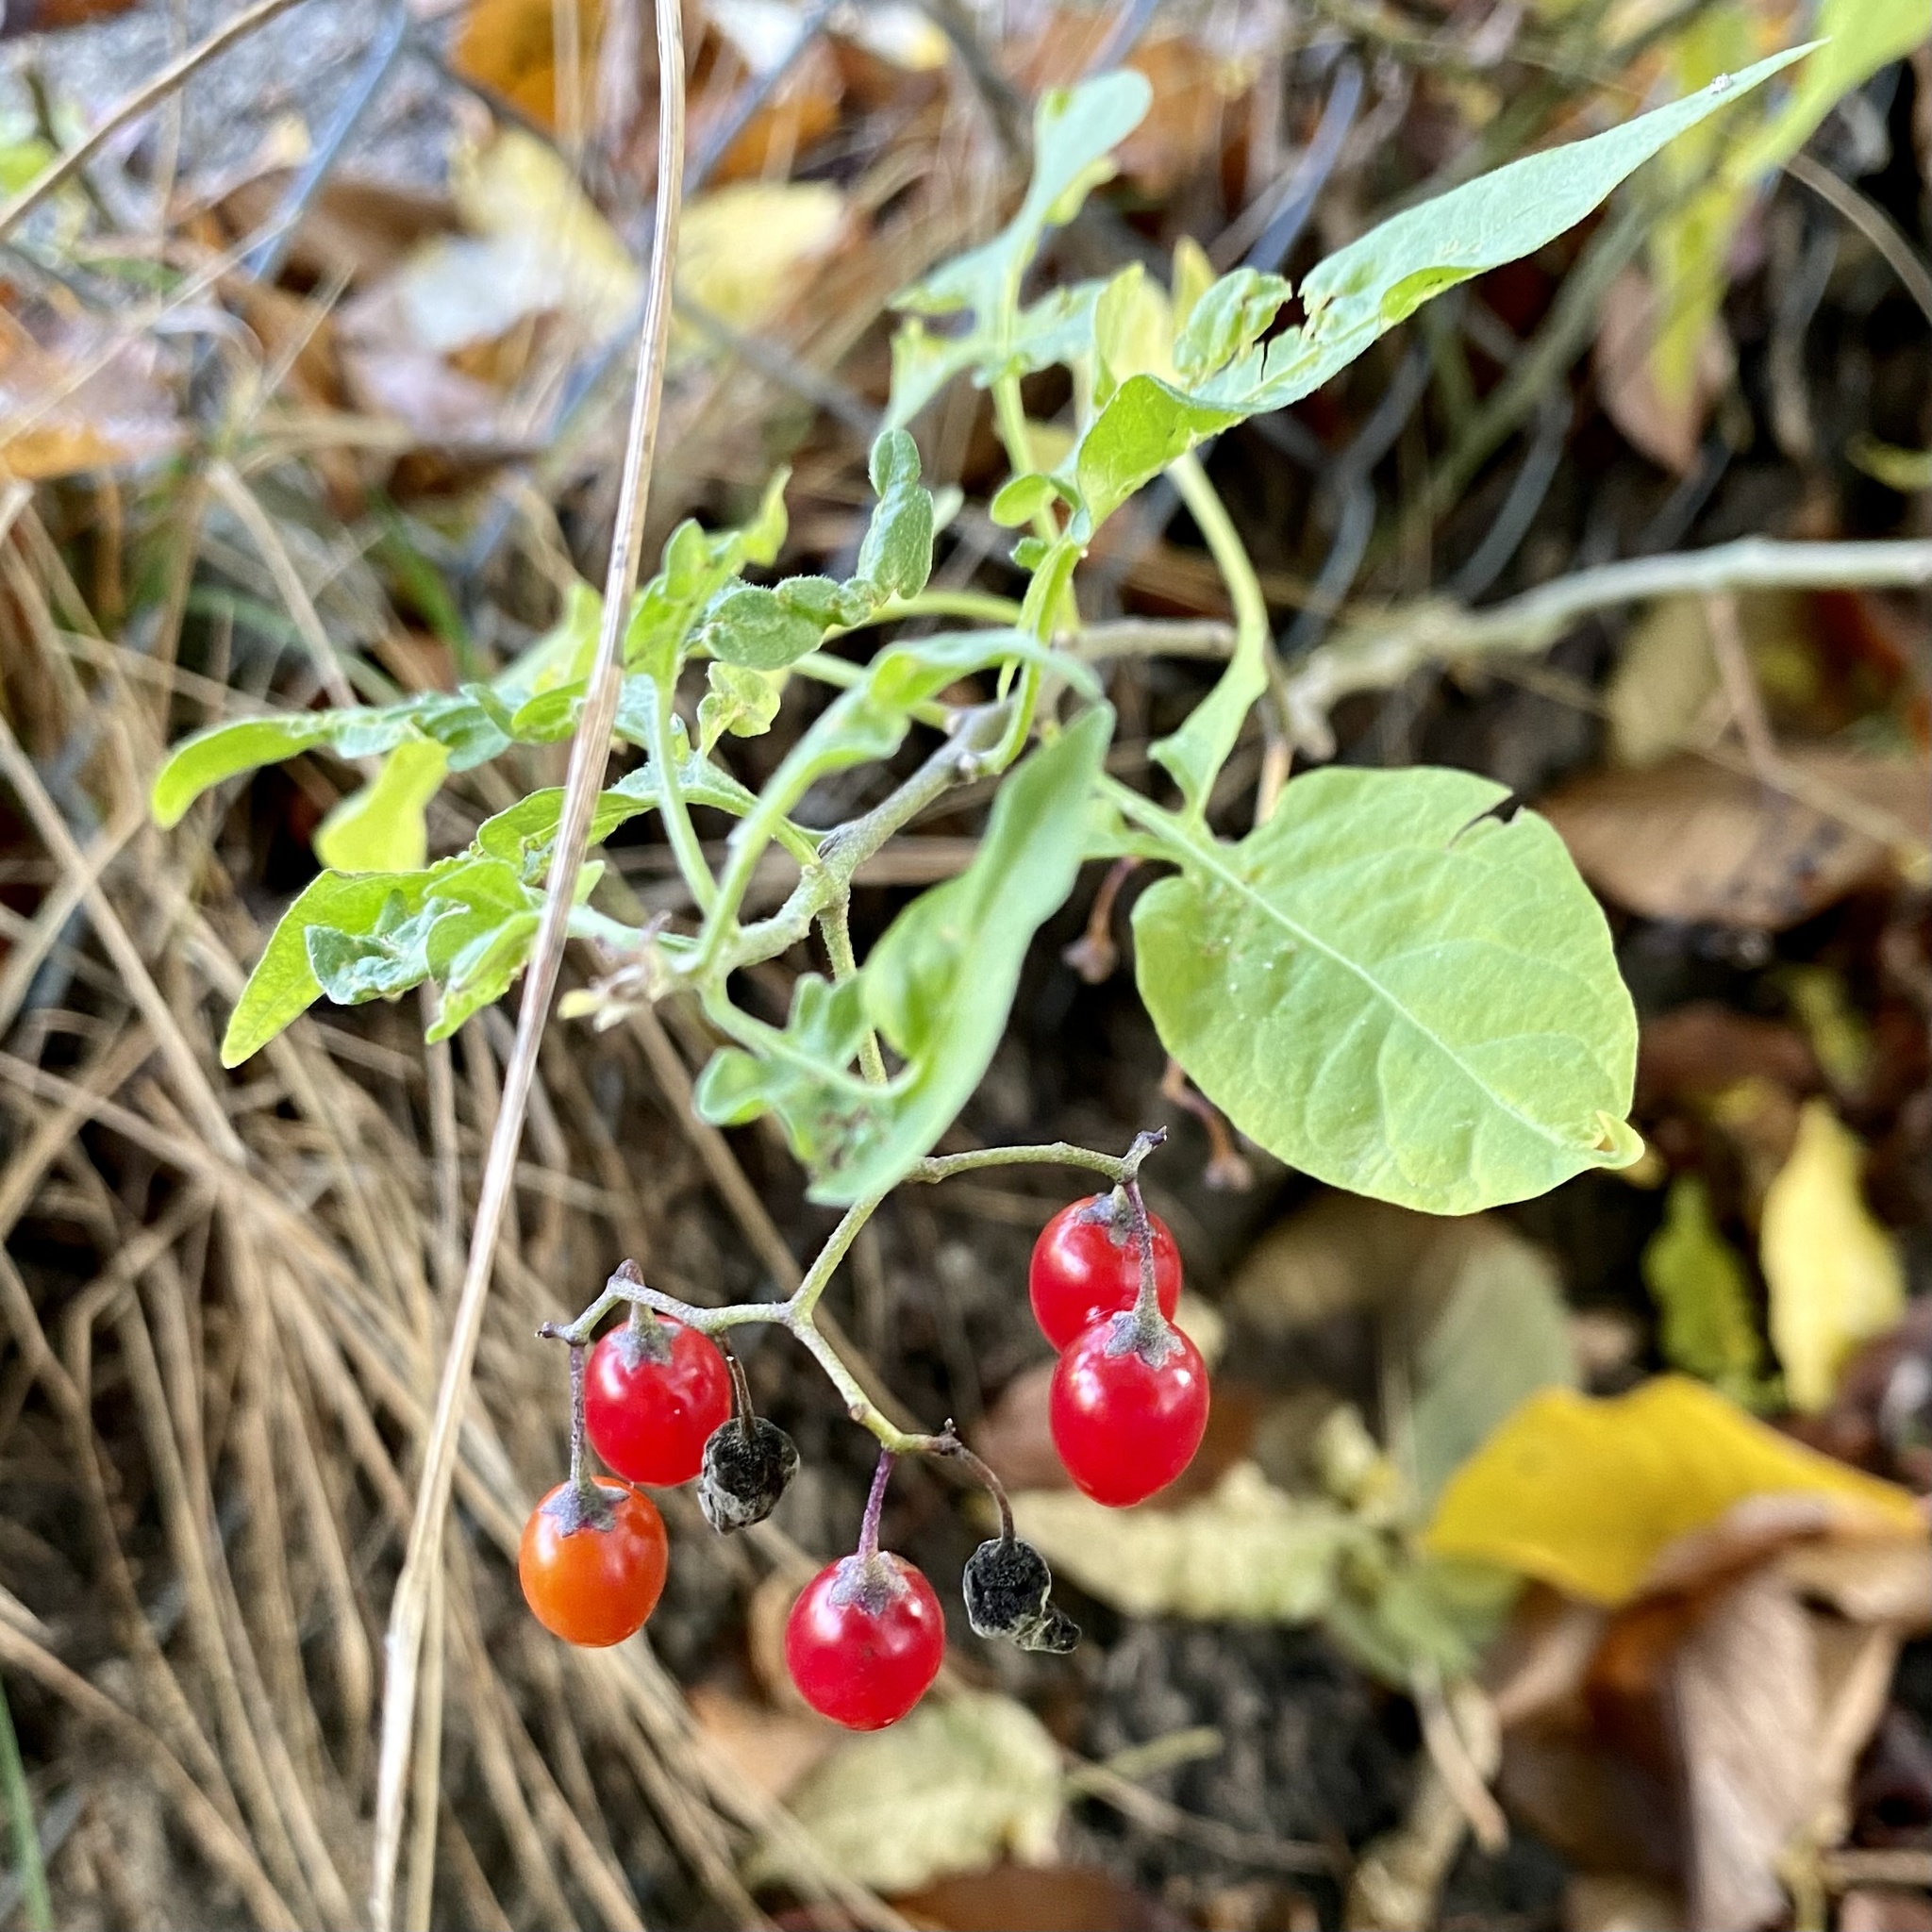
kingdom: Plantae
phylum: Tracheophyta
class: Magnoliopsida
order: Solanales
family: Solanaceae
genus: Solanum
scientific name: Solanum dulcamara
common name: Climbing nightshade
